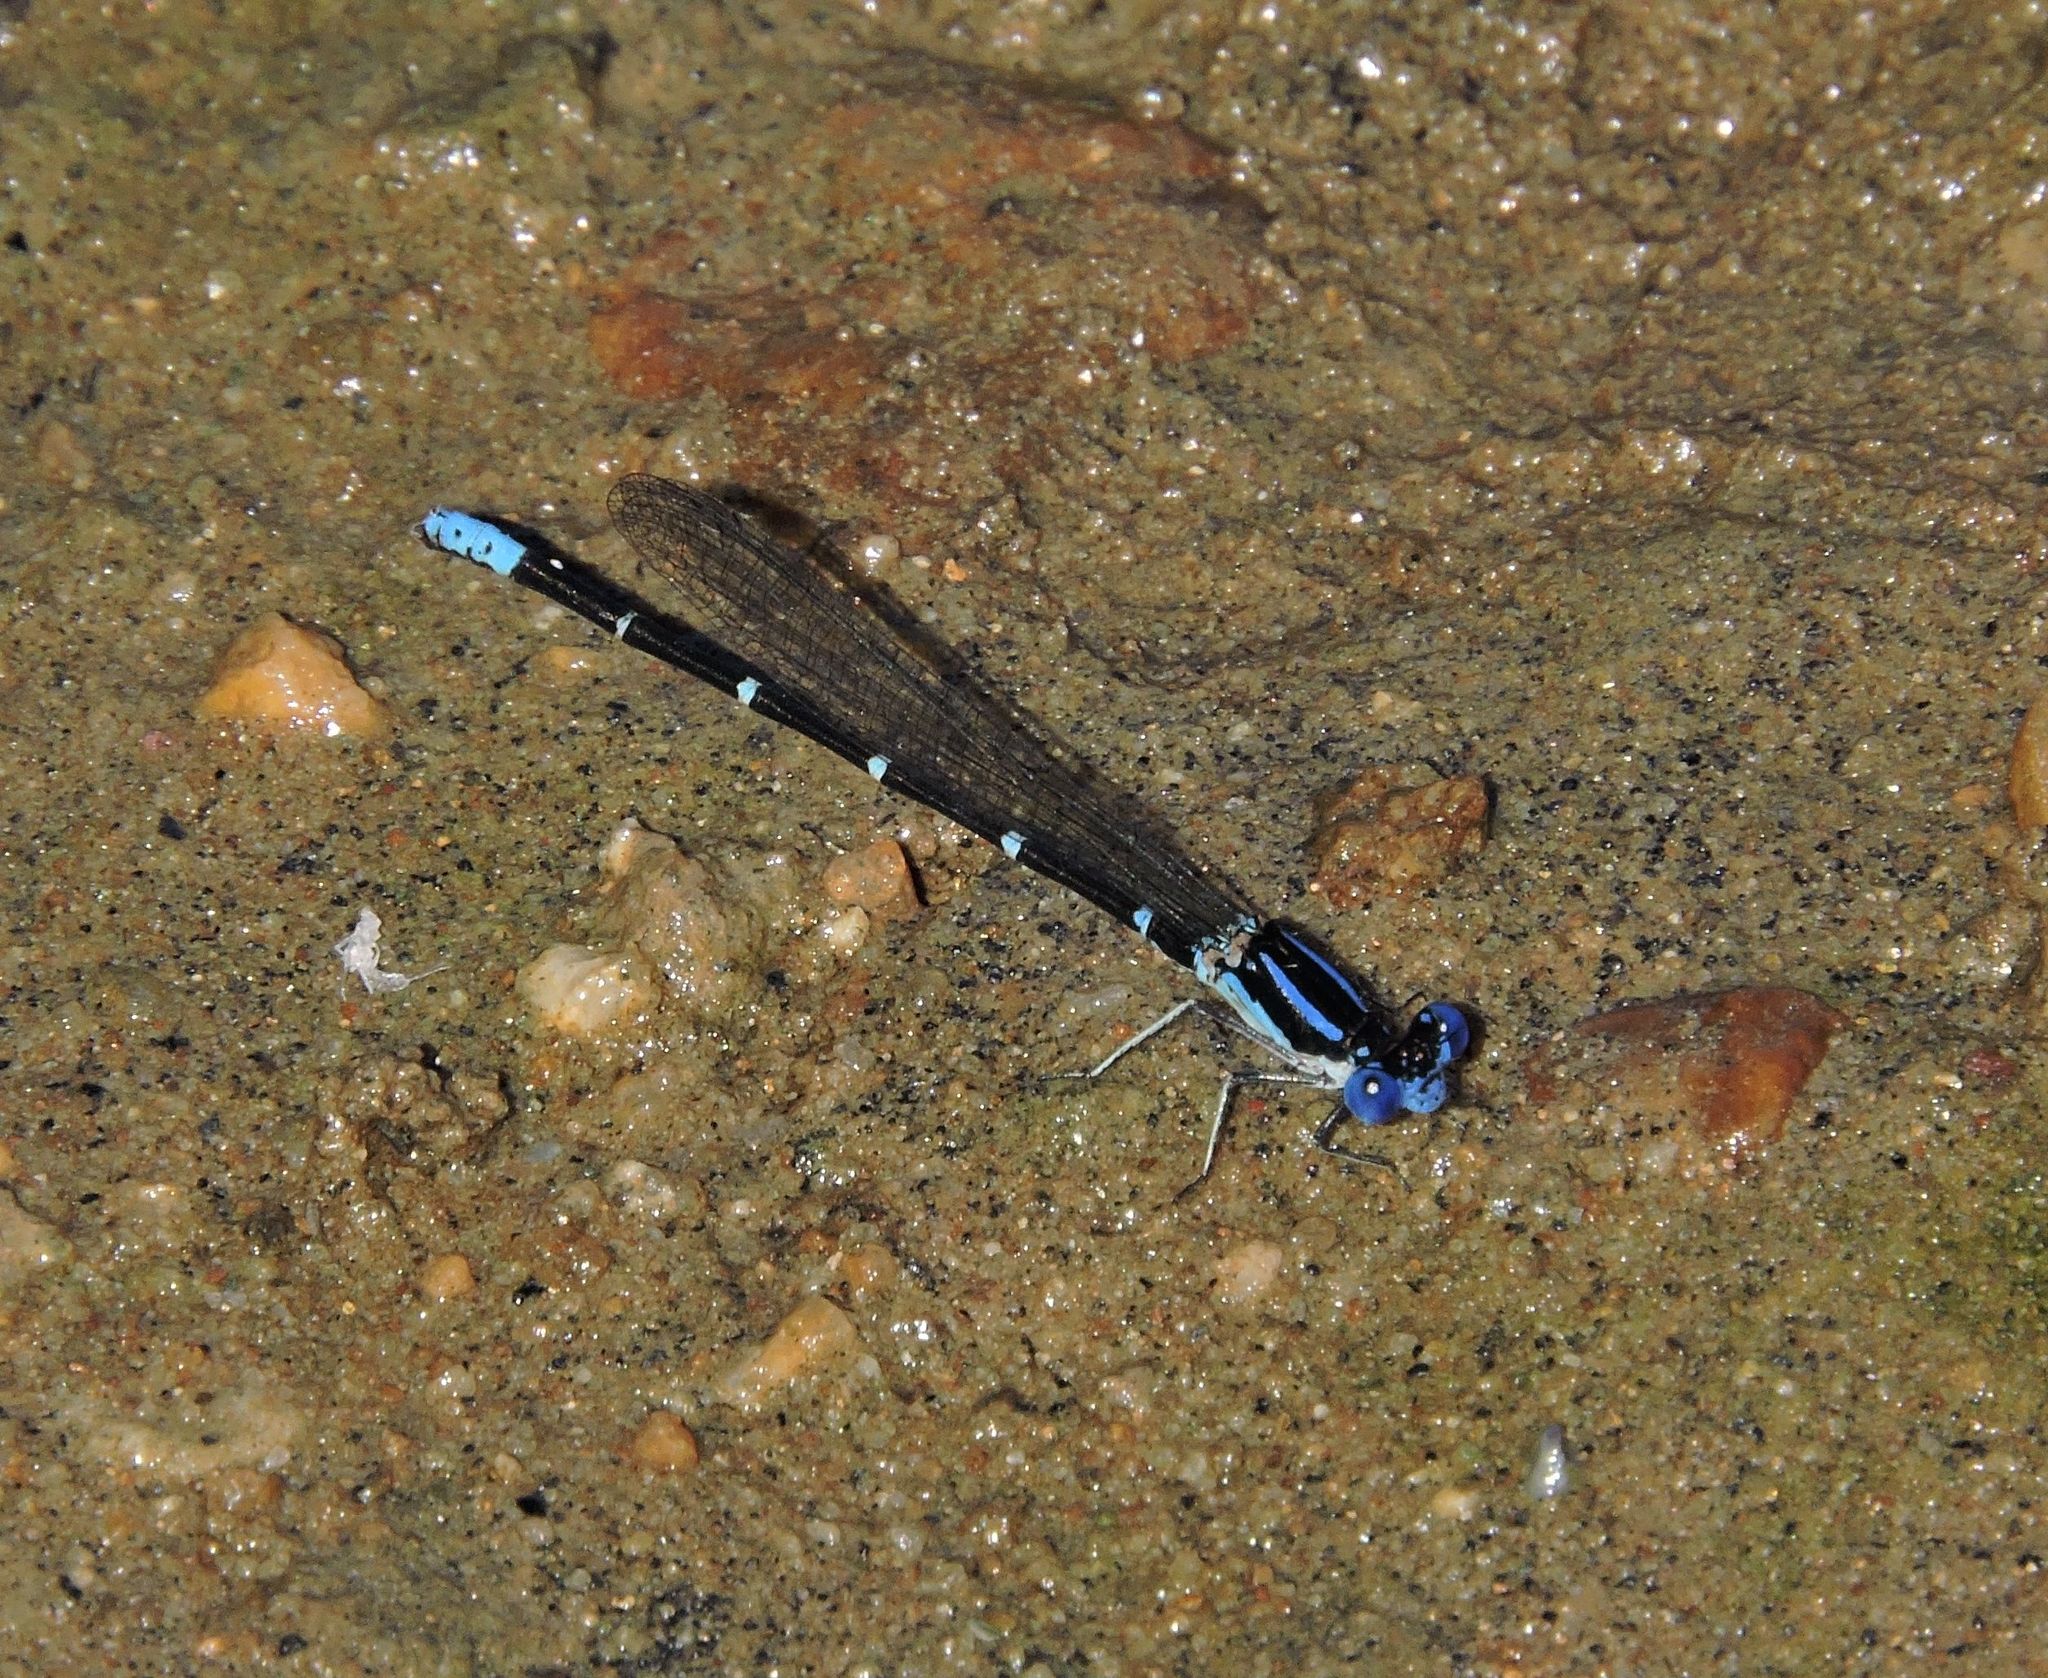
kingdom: Animalia
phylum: Arthropoda
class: Insecta
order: Odonata
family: Coenagrionidae
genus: Argia
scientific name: Argia sedula
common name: Blue-ringed dancer
